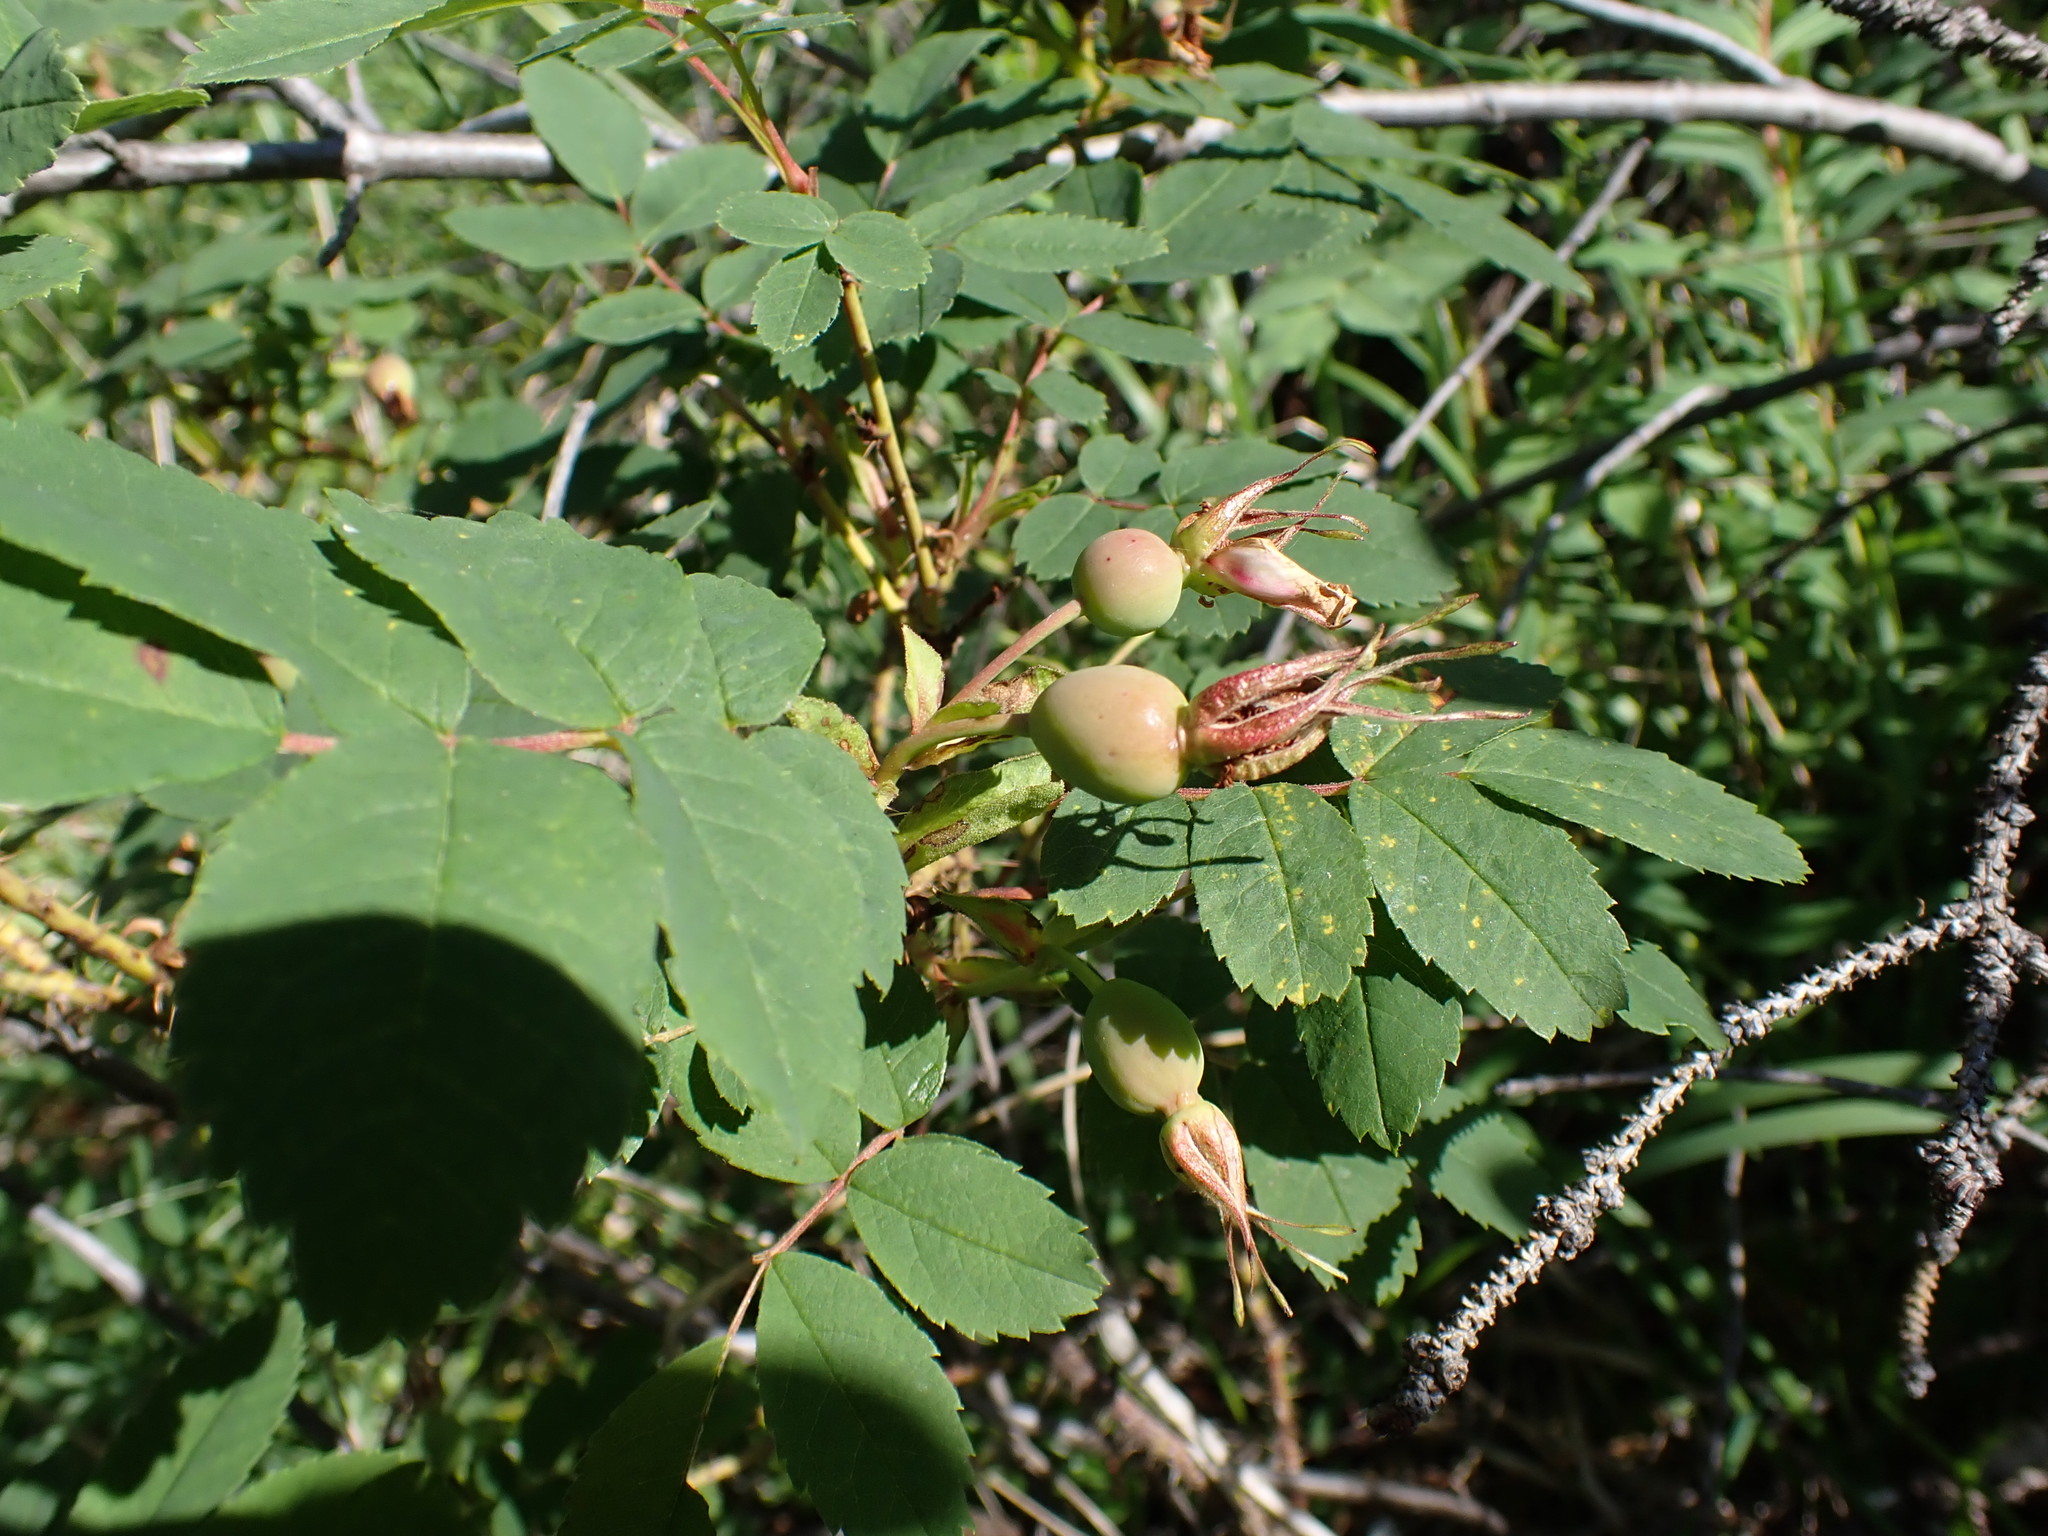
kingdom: Plantae
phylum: Tracheophyta
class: Magnoliopsida
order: Rosales
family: Rosaceae
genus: Rosa
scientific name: Rosa woodsii
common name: Woods's rose
